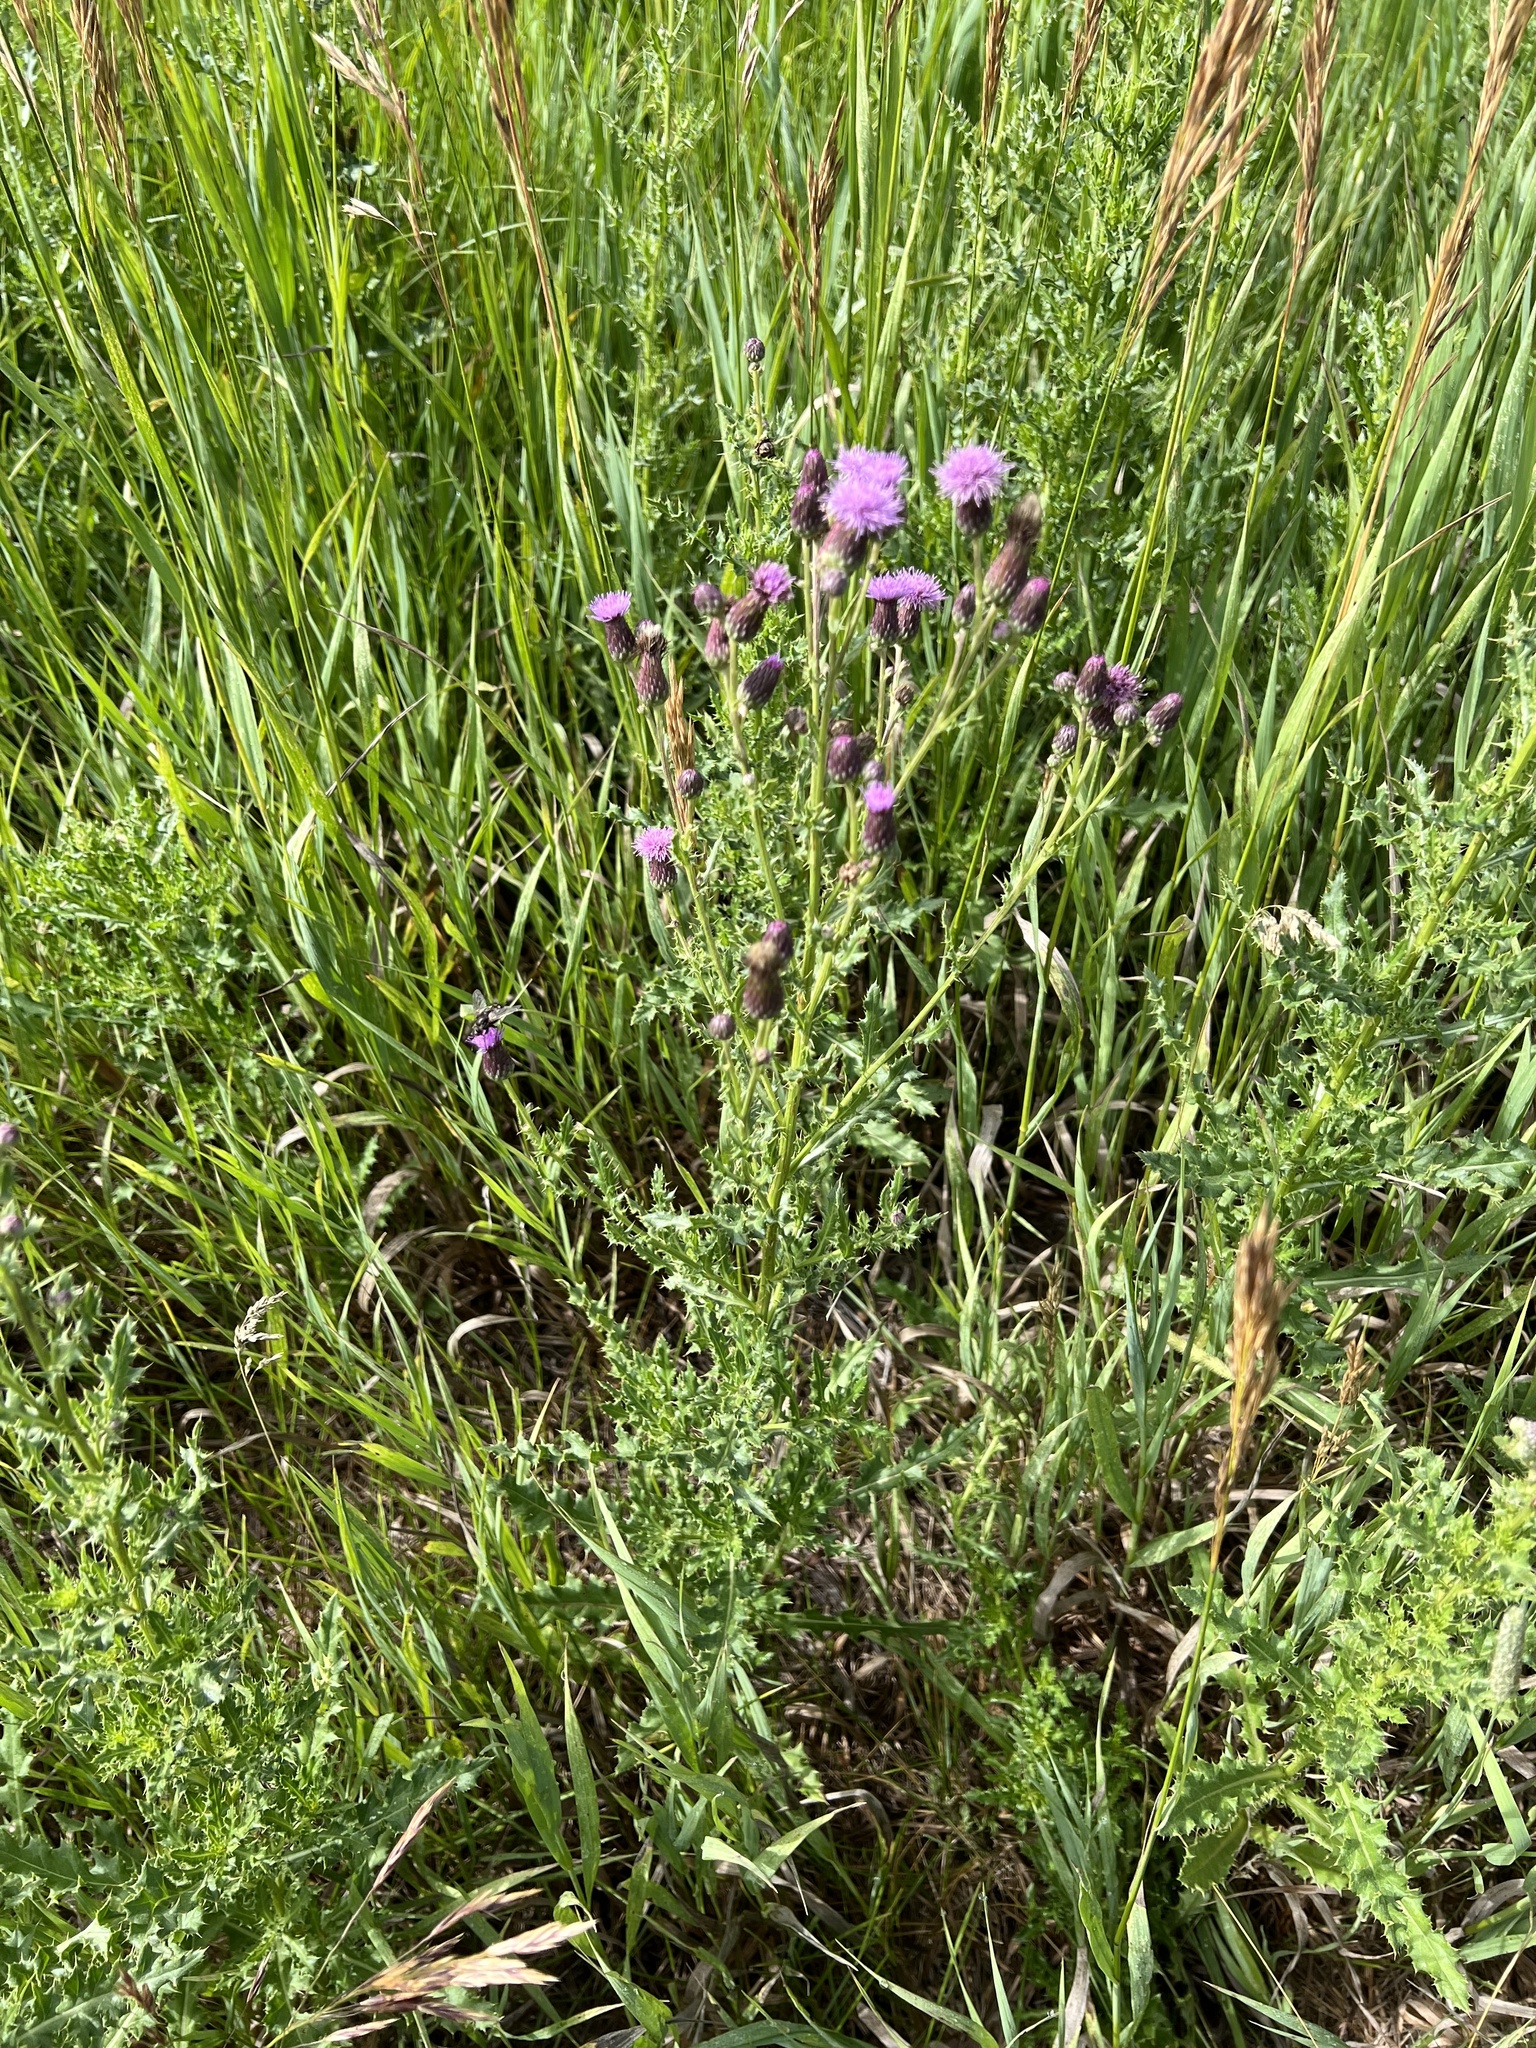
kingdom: Plantae
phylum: Tracheophyta
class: Magnoliopsida
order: Asterales
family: Asteraceae
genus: Cirsium
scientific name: Cirsium arvense
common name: Creeping thistle
